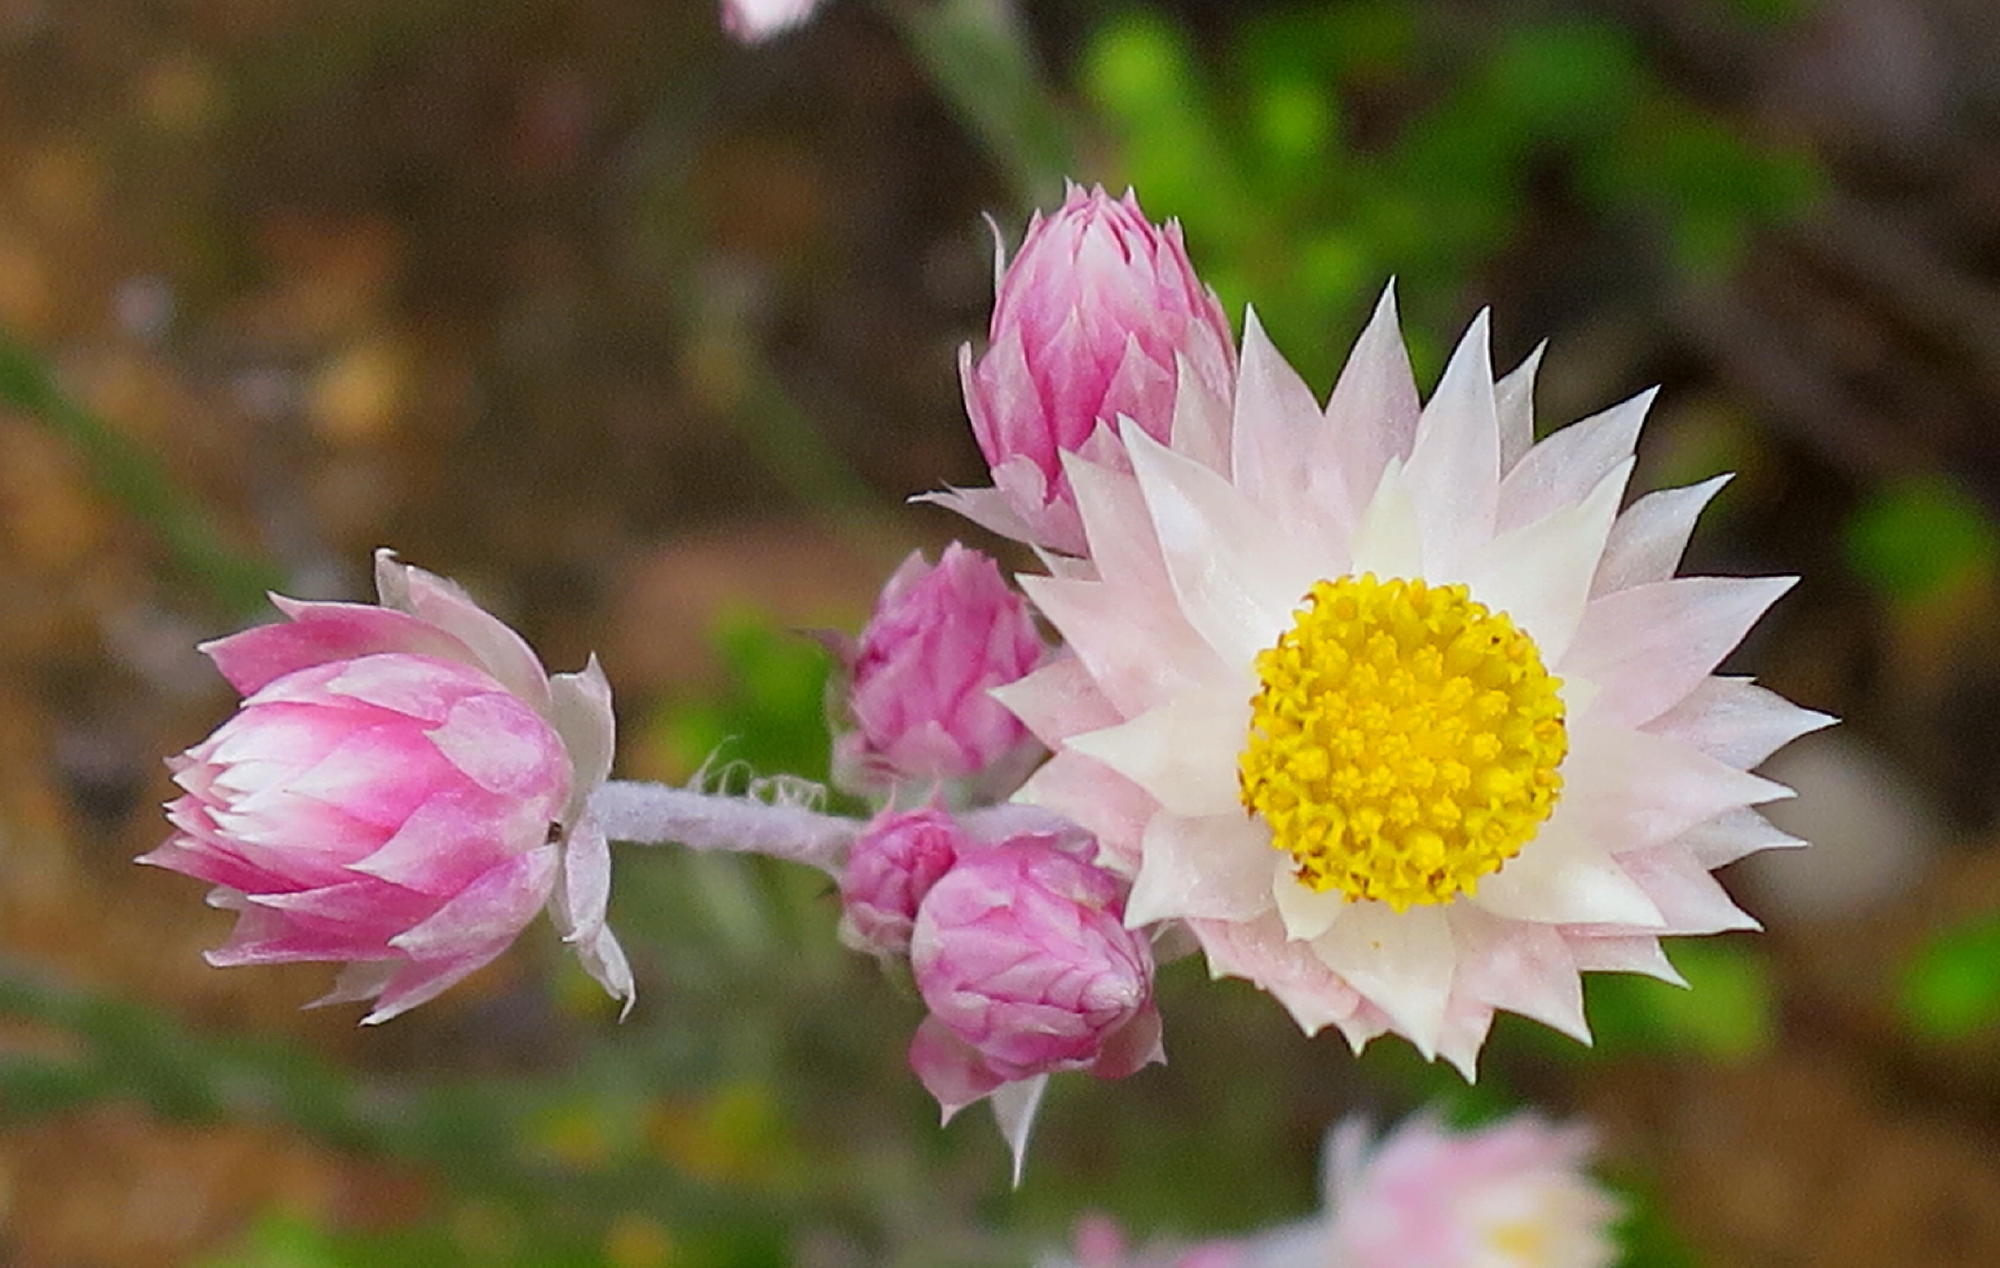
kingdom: Plantae
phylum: Tracheophyta
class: Magnoliopsida
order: Asterales
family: Asteraceae
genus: Syncarpha
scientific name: Syncarpha canescens
